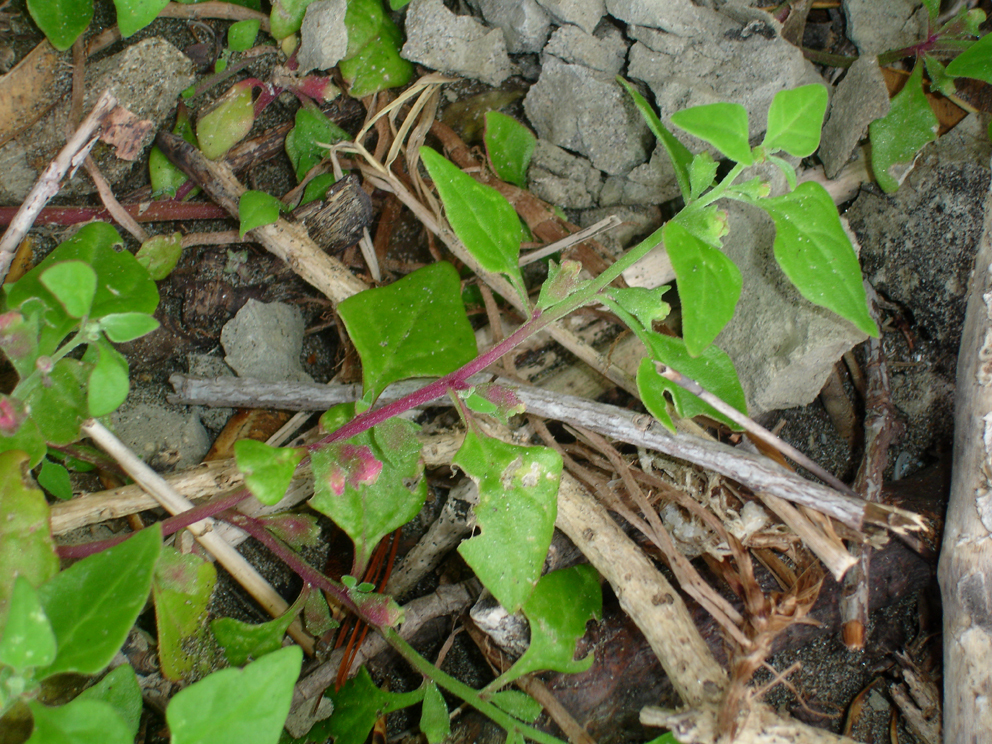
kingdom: Plantae
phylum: Tracheophyta
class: Magnoliopsida
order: Caryophyllales
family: Aizoaceae
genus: Tetragonia
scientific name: Tetragonia tetragonoides
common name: New zealand-spinach
